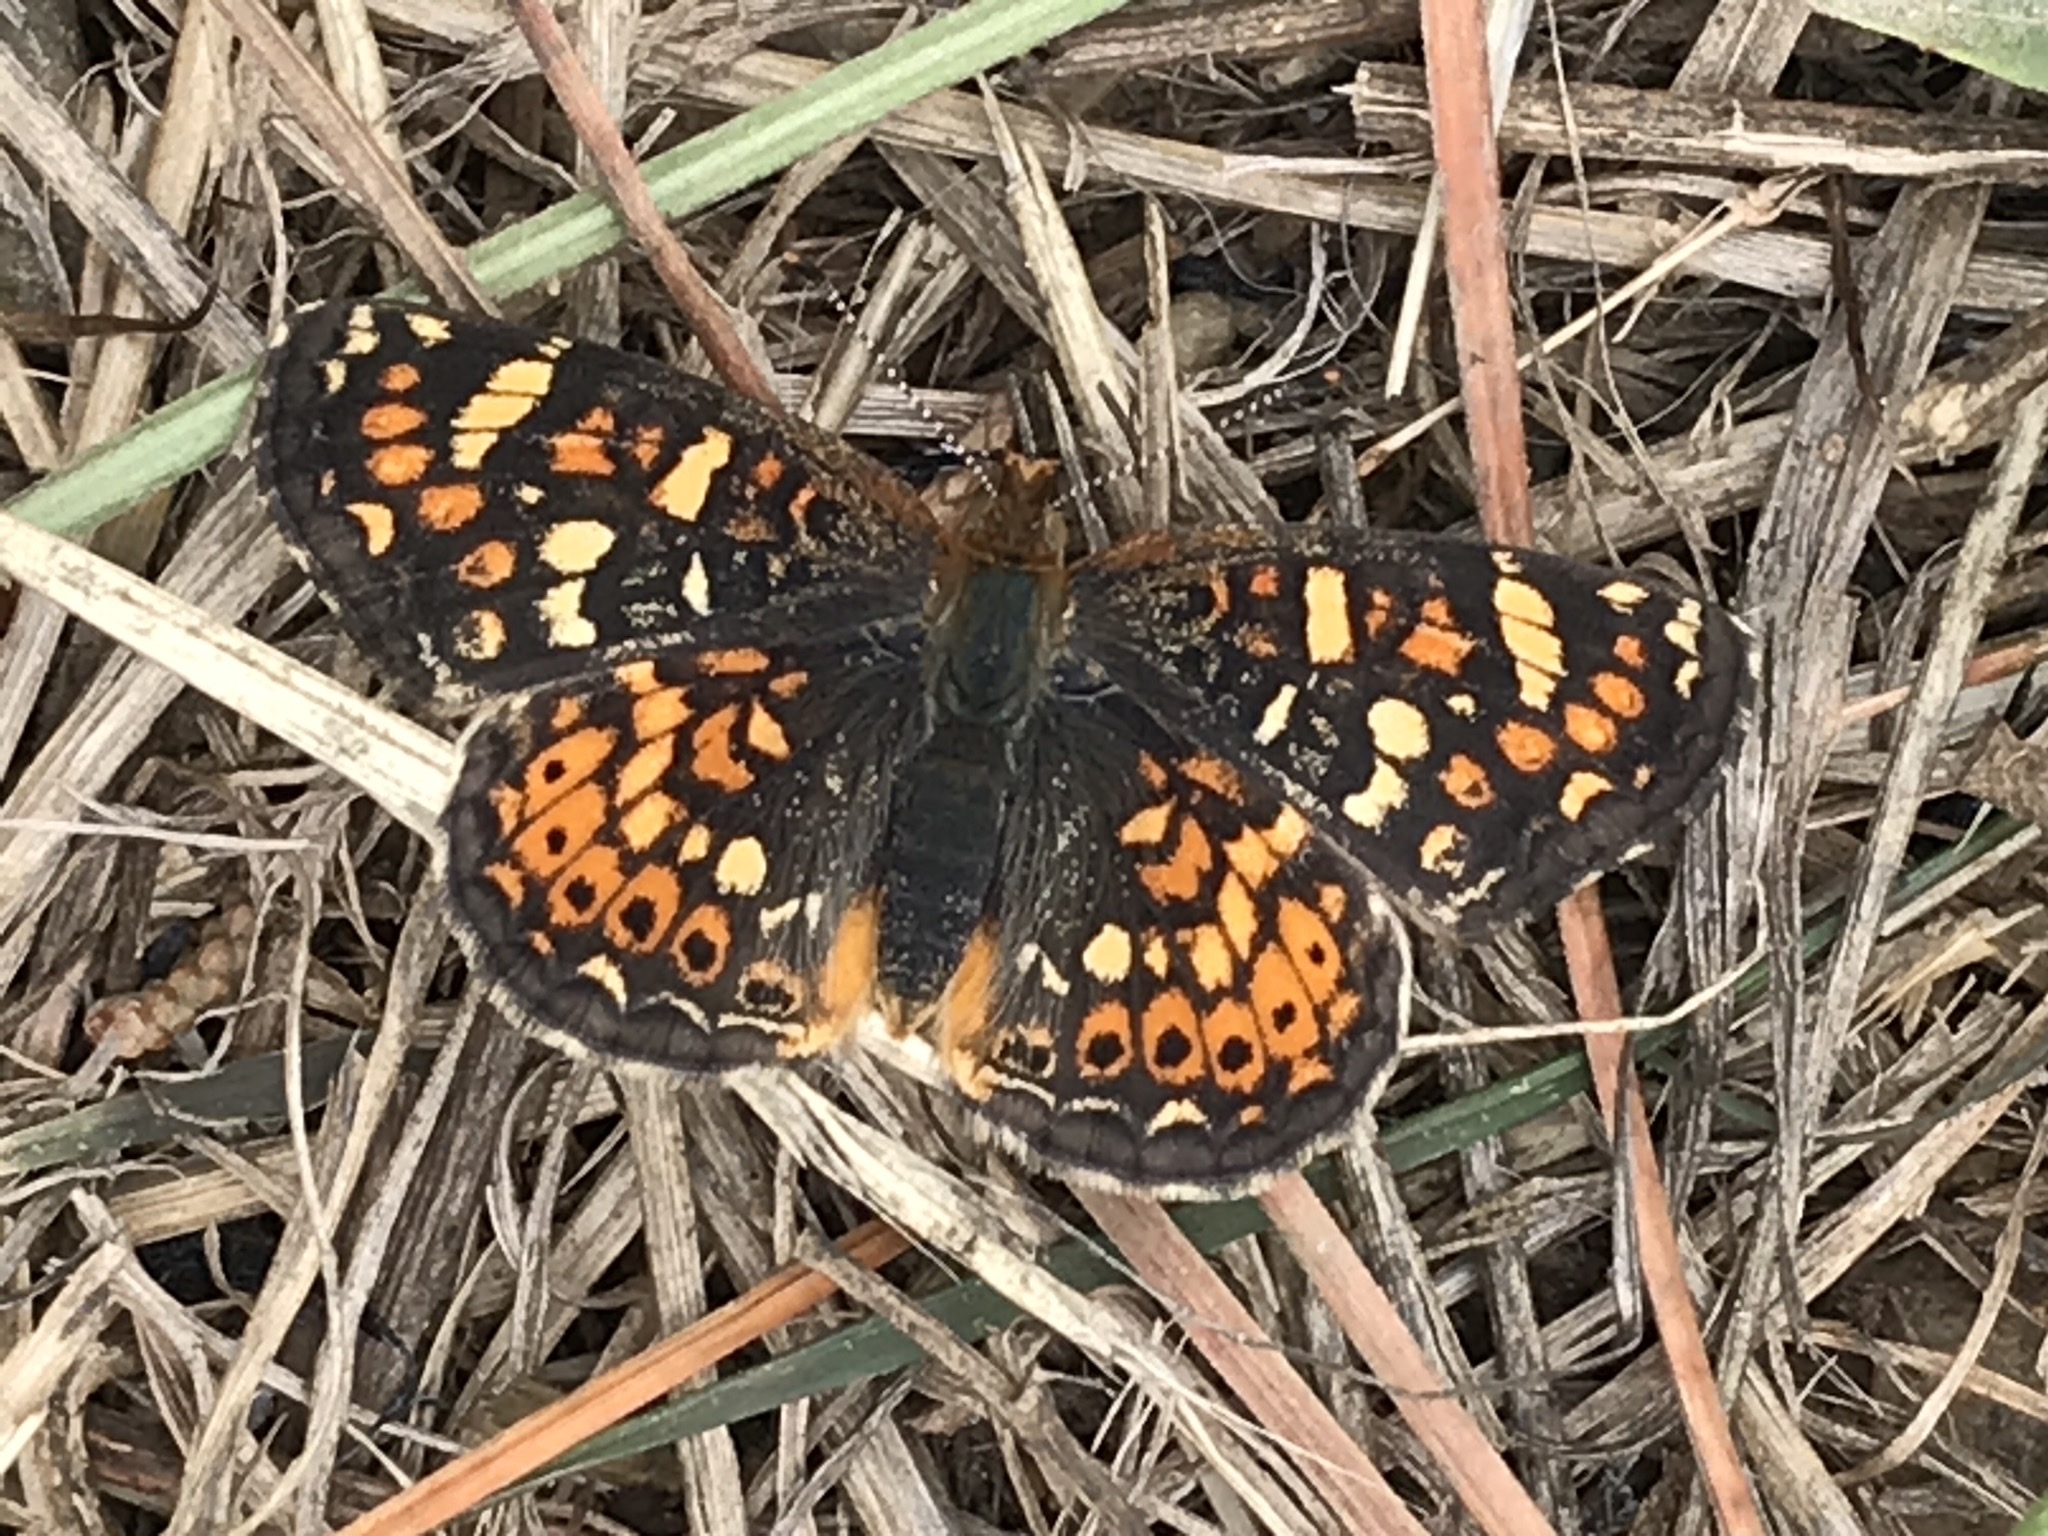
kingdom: Animalia
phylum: Arthropoda
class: Insecta
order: Lepidoptera
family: Nymphalidae
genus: Phyciodes
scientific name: Phyciodes tharos
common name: Pearl crescent
